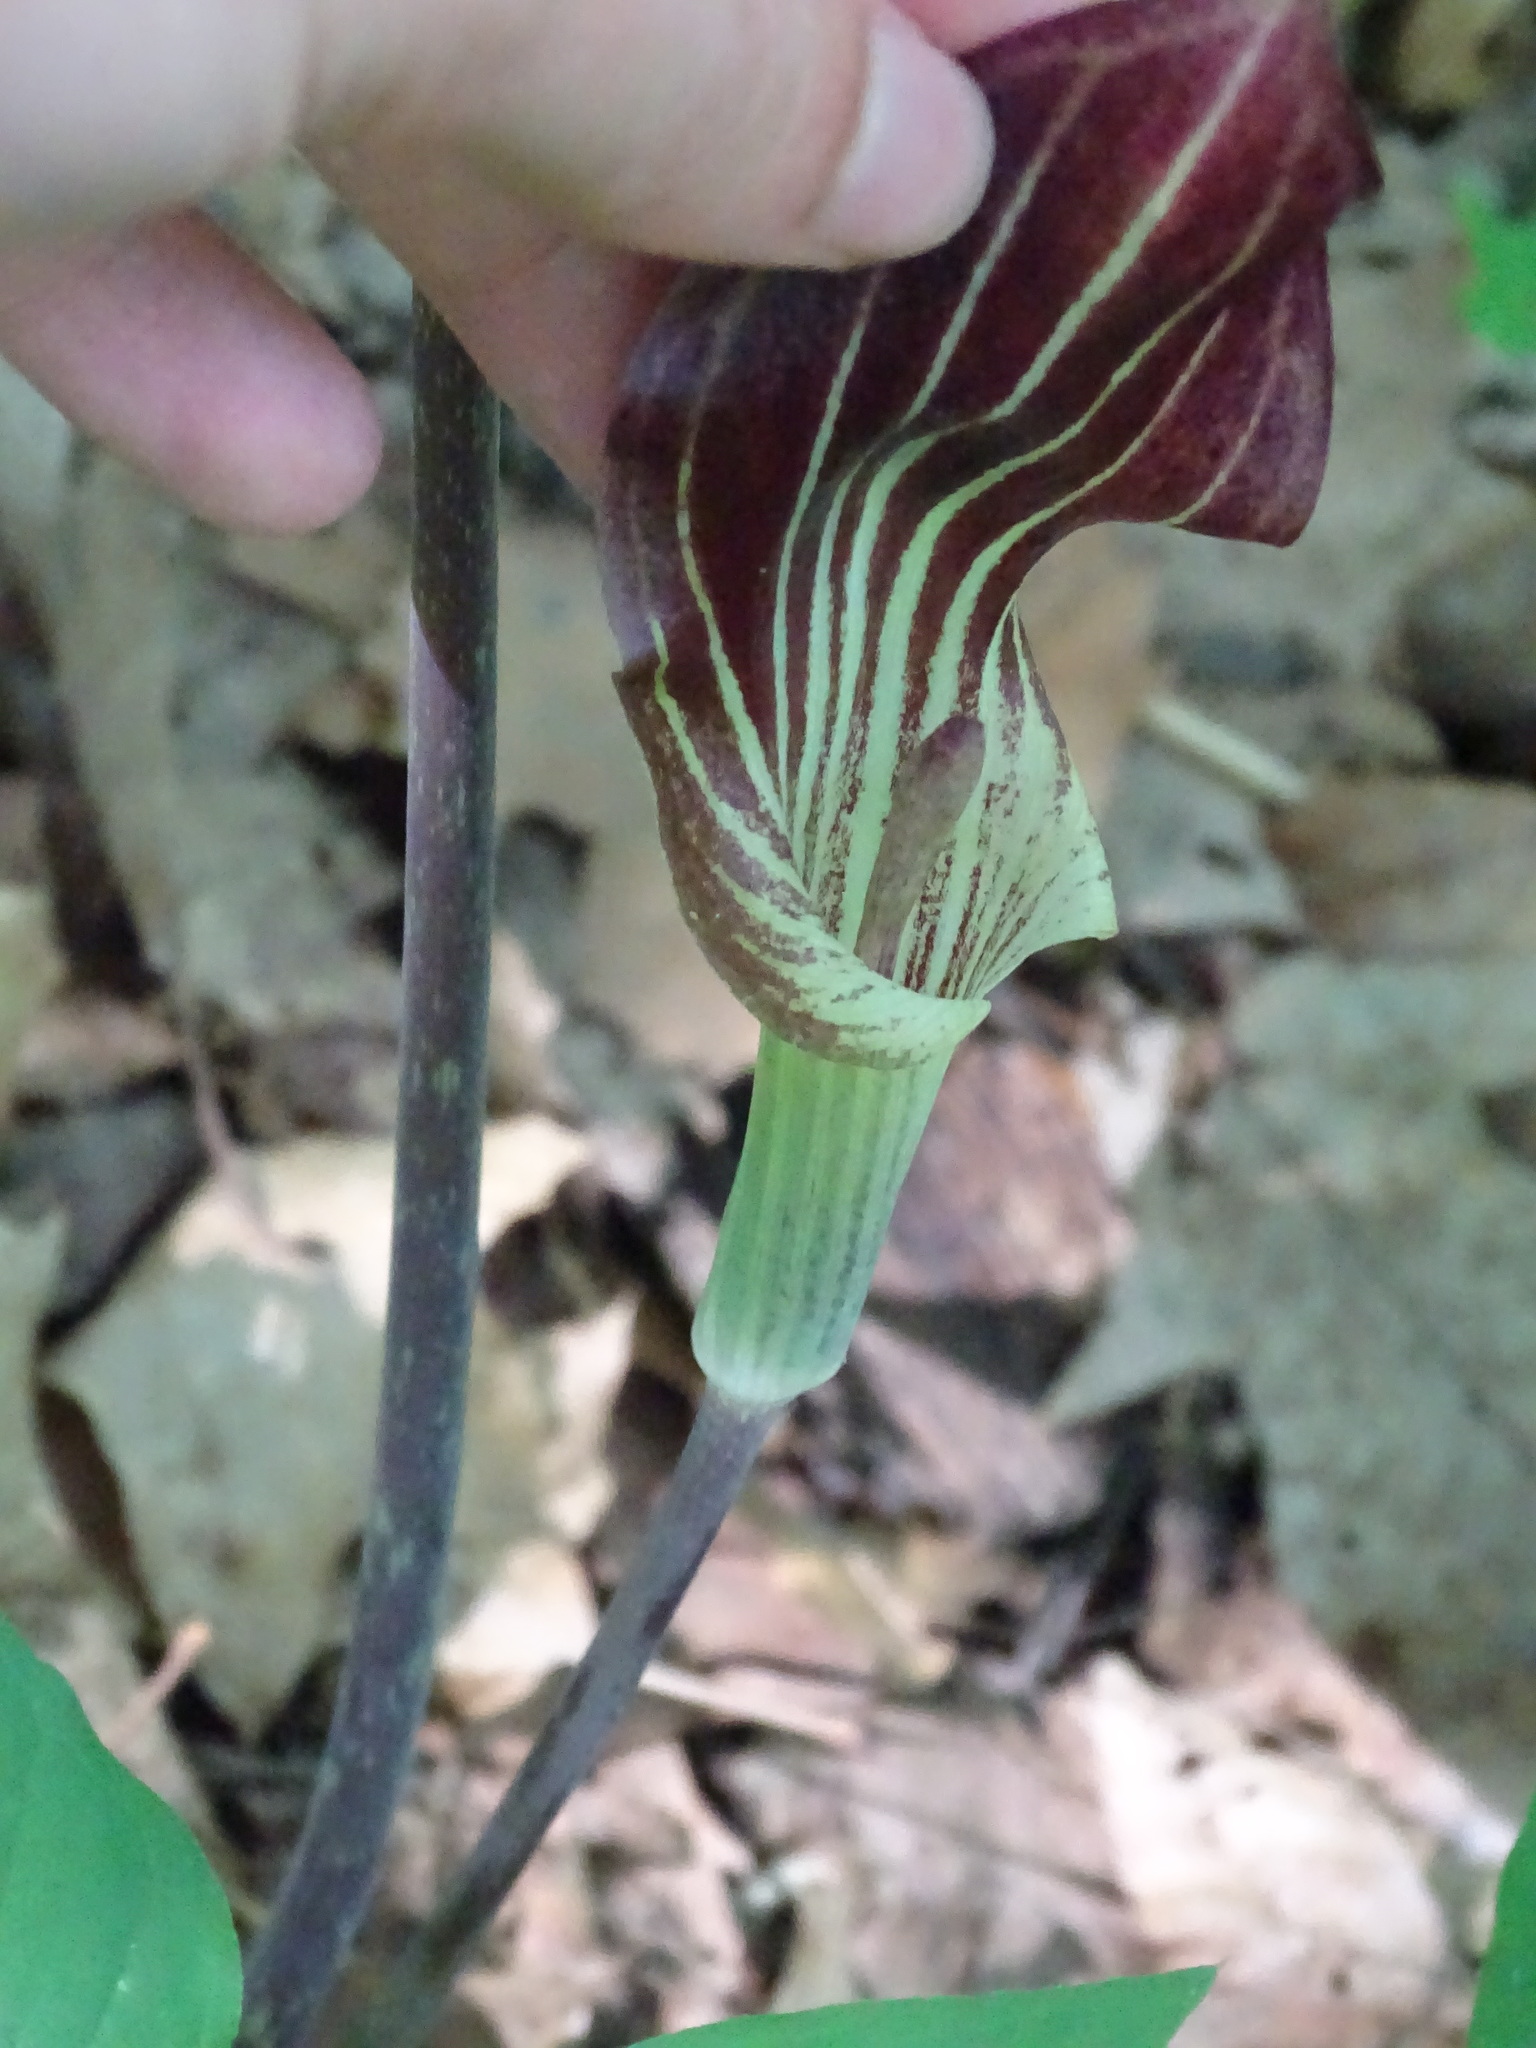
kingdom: Plantae
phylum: Tracheophyta
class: Liliopsida
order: Alismatales
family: Araceae
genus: Arisaema
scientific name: Arisaema triphyllum
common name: Jack-in-the-pulpit
